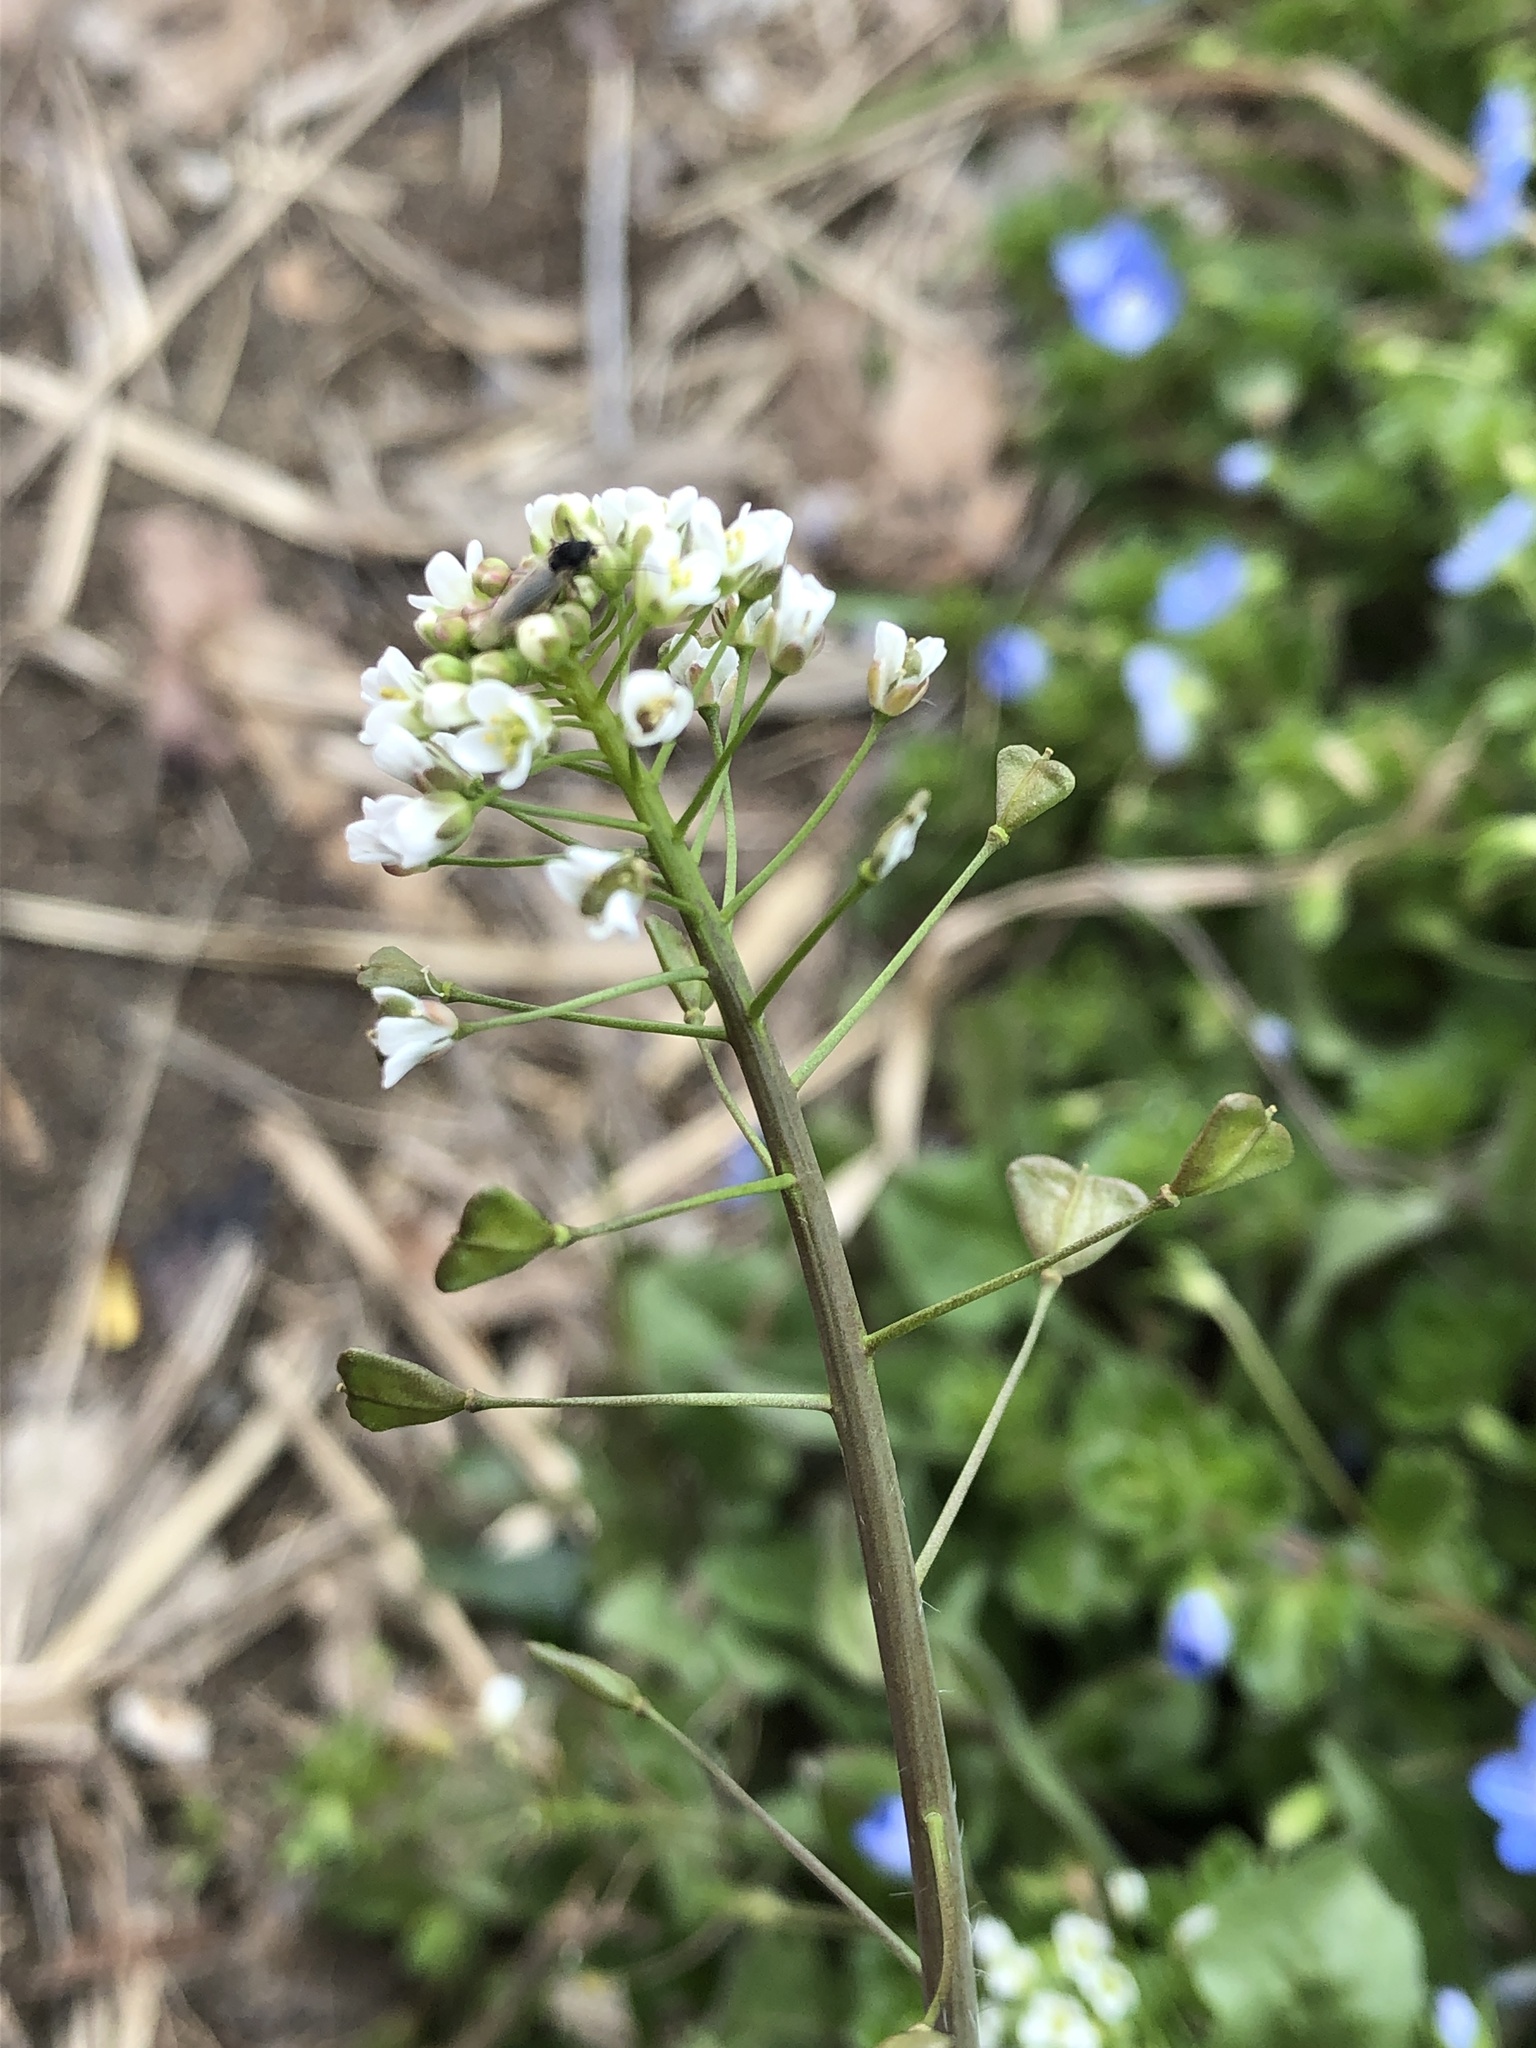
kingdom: Plantae
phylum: Tracheophyta
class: Magnoliopsida
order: Brassicales
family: Brassicaceae
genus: Capsella
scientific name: Capsella bursa-pastoris
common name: Shepherd's purse
